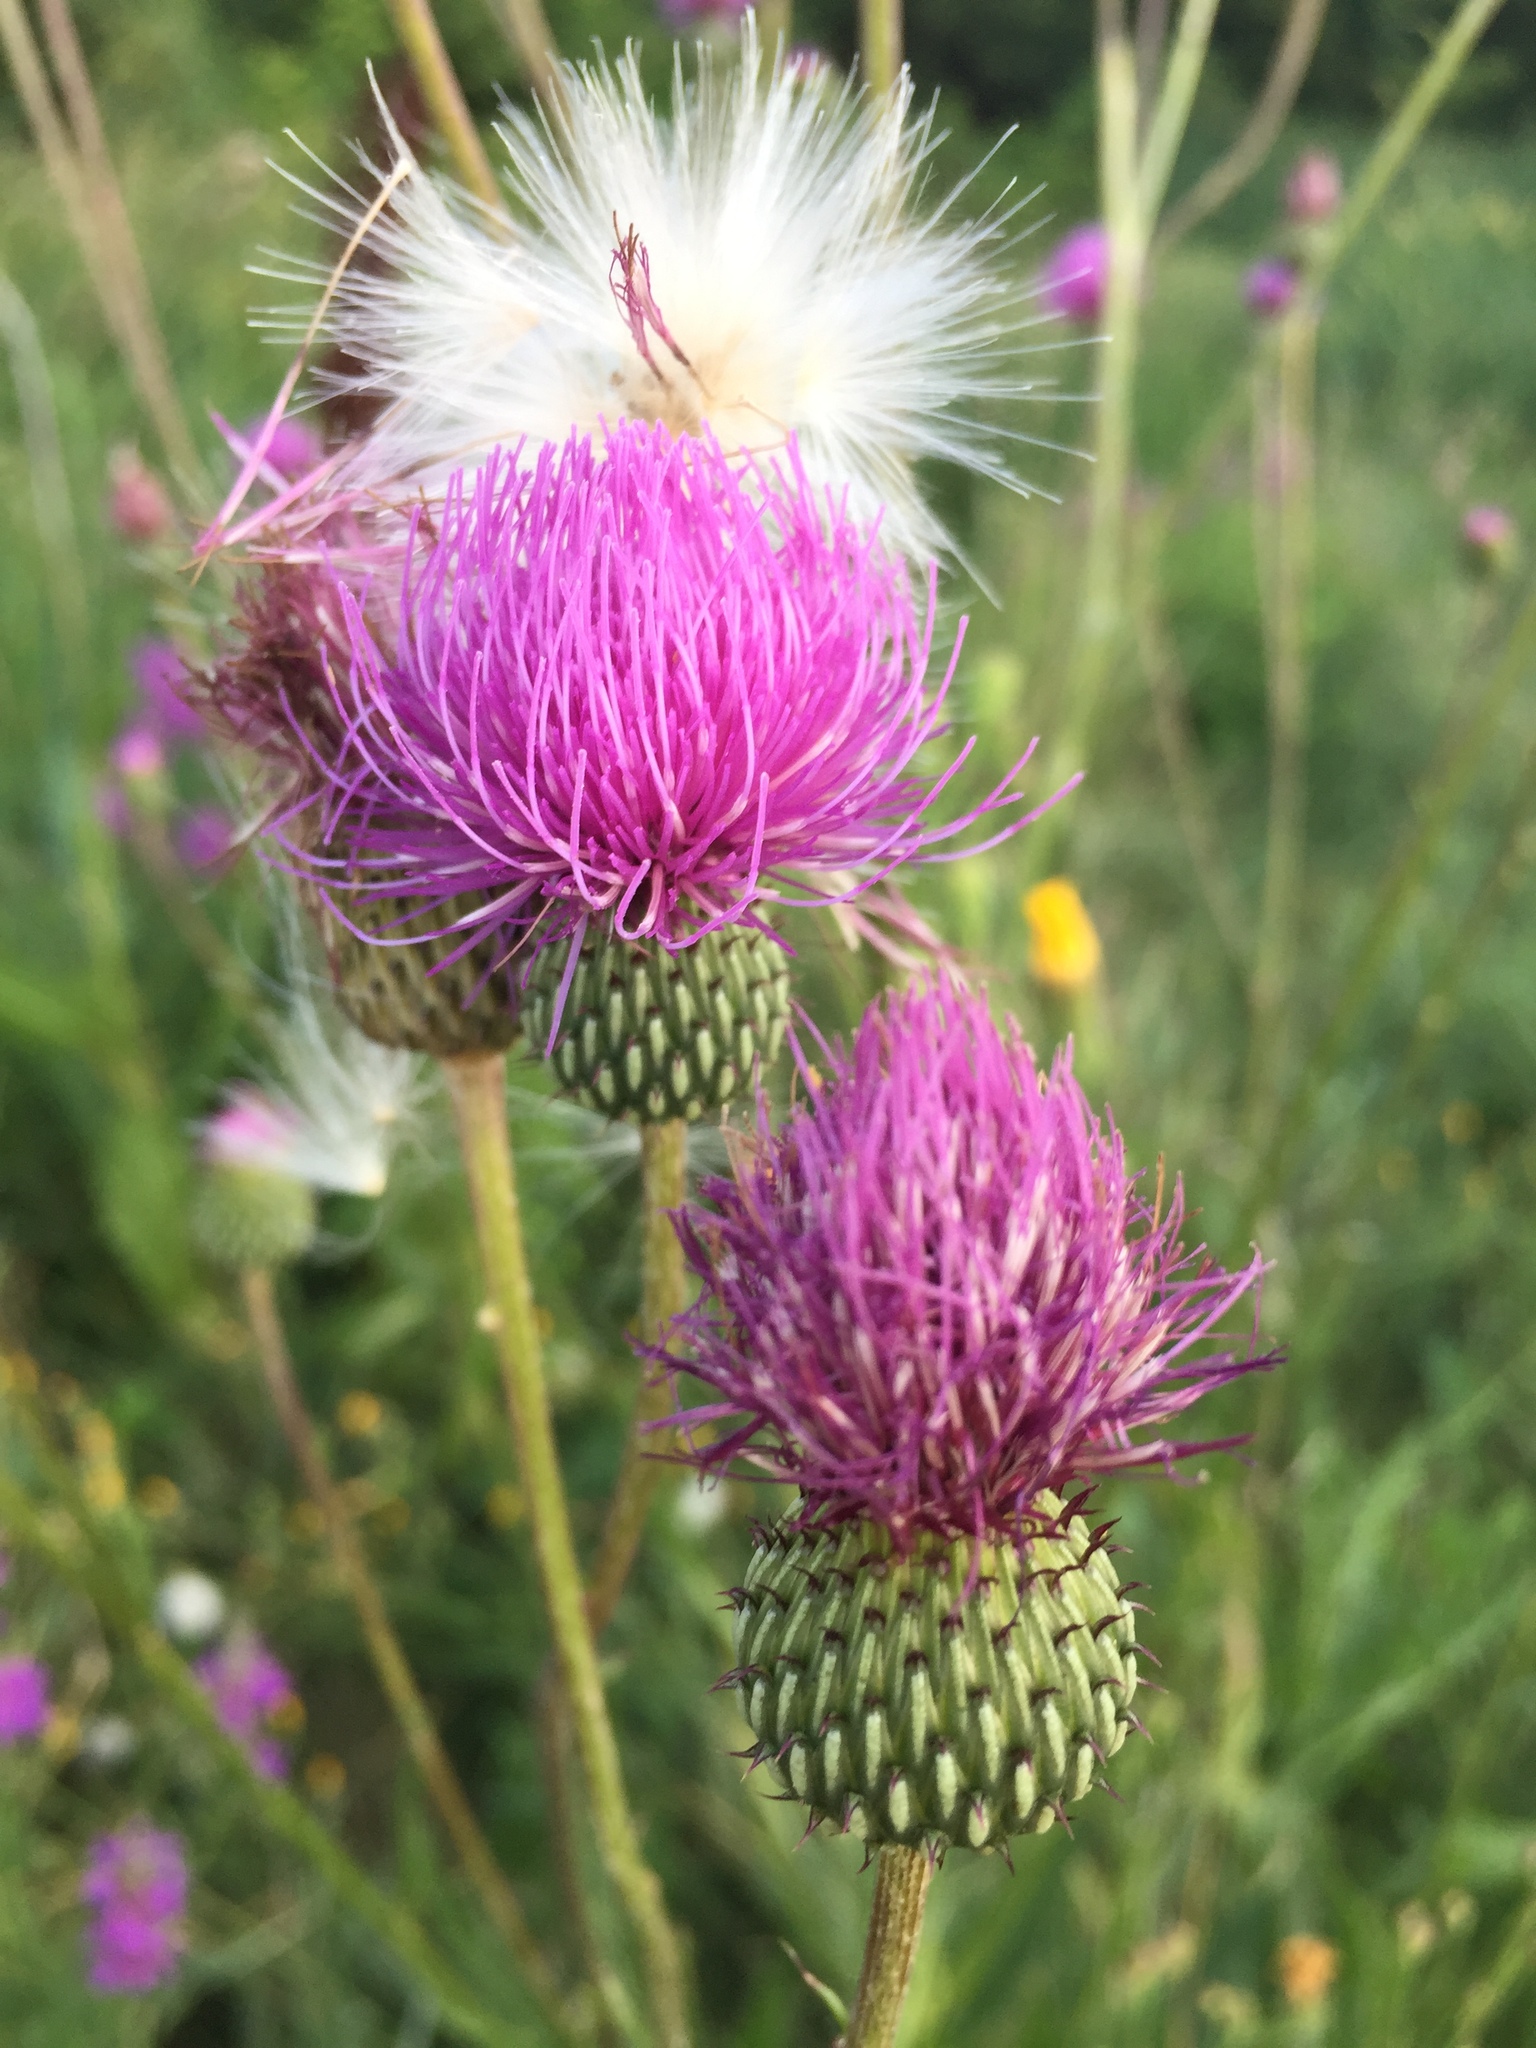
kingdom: Plantae
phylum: Tracheophyta
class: Magnoliopsida
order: Asterales
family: Asteraceae
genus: Cirsium
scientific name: Cirsium canum
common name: Queen anne's thistle
